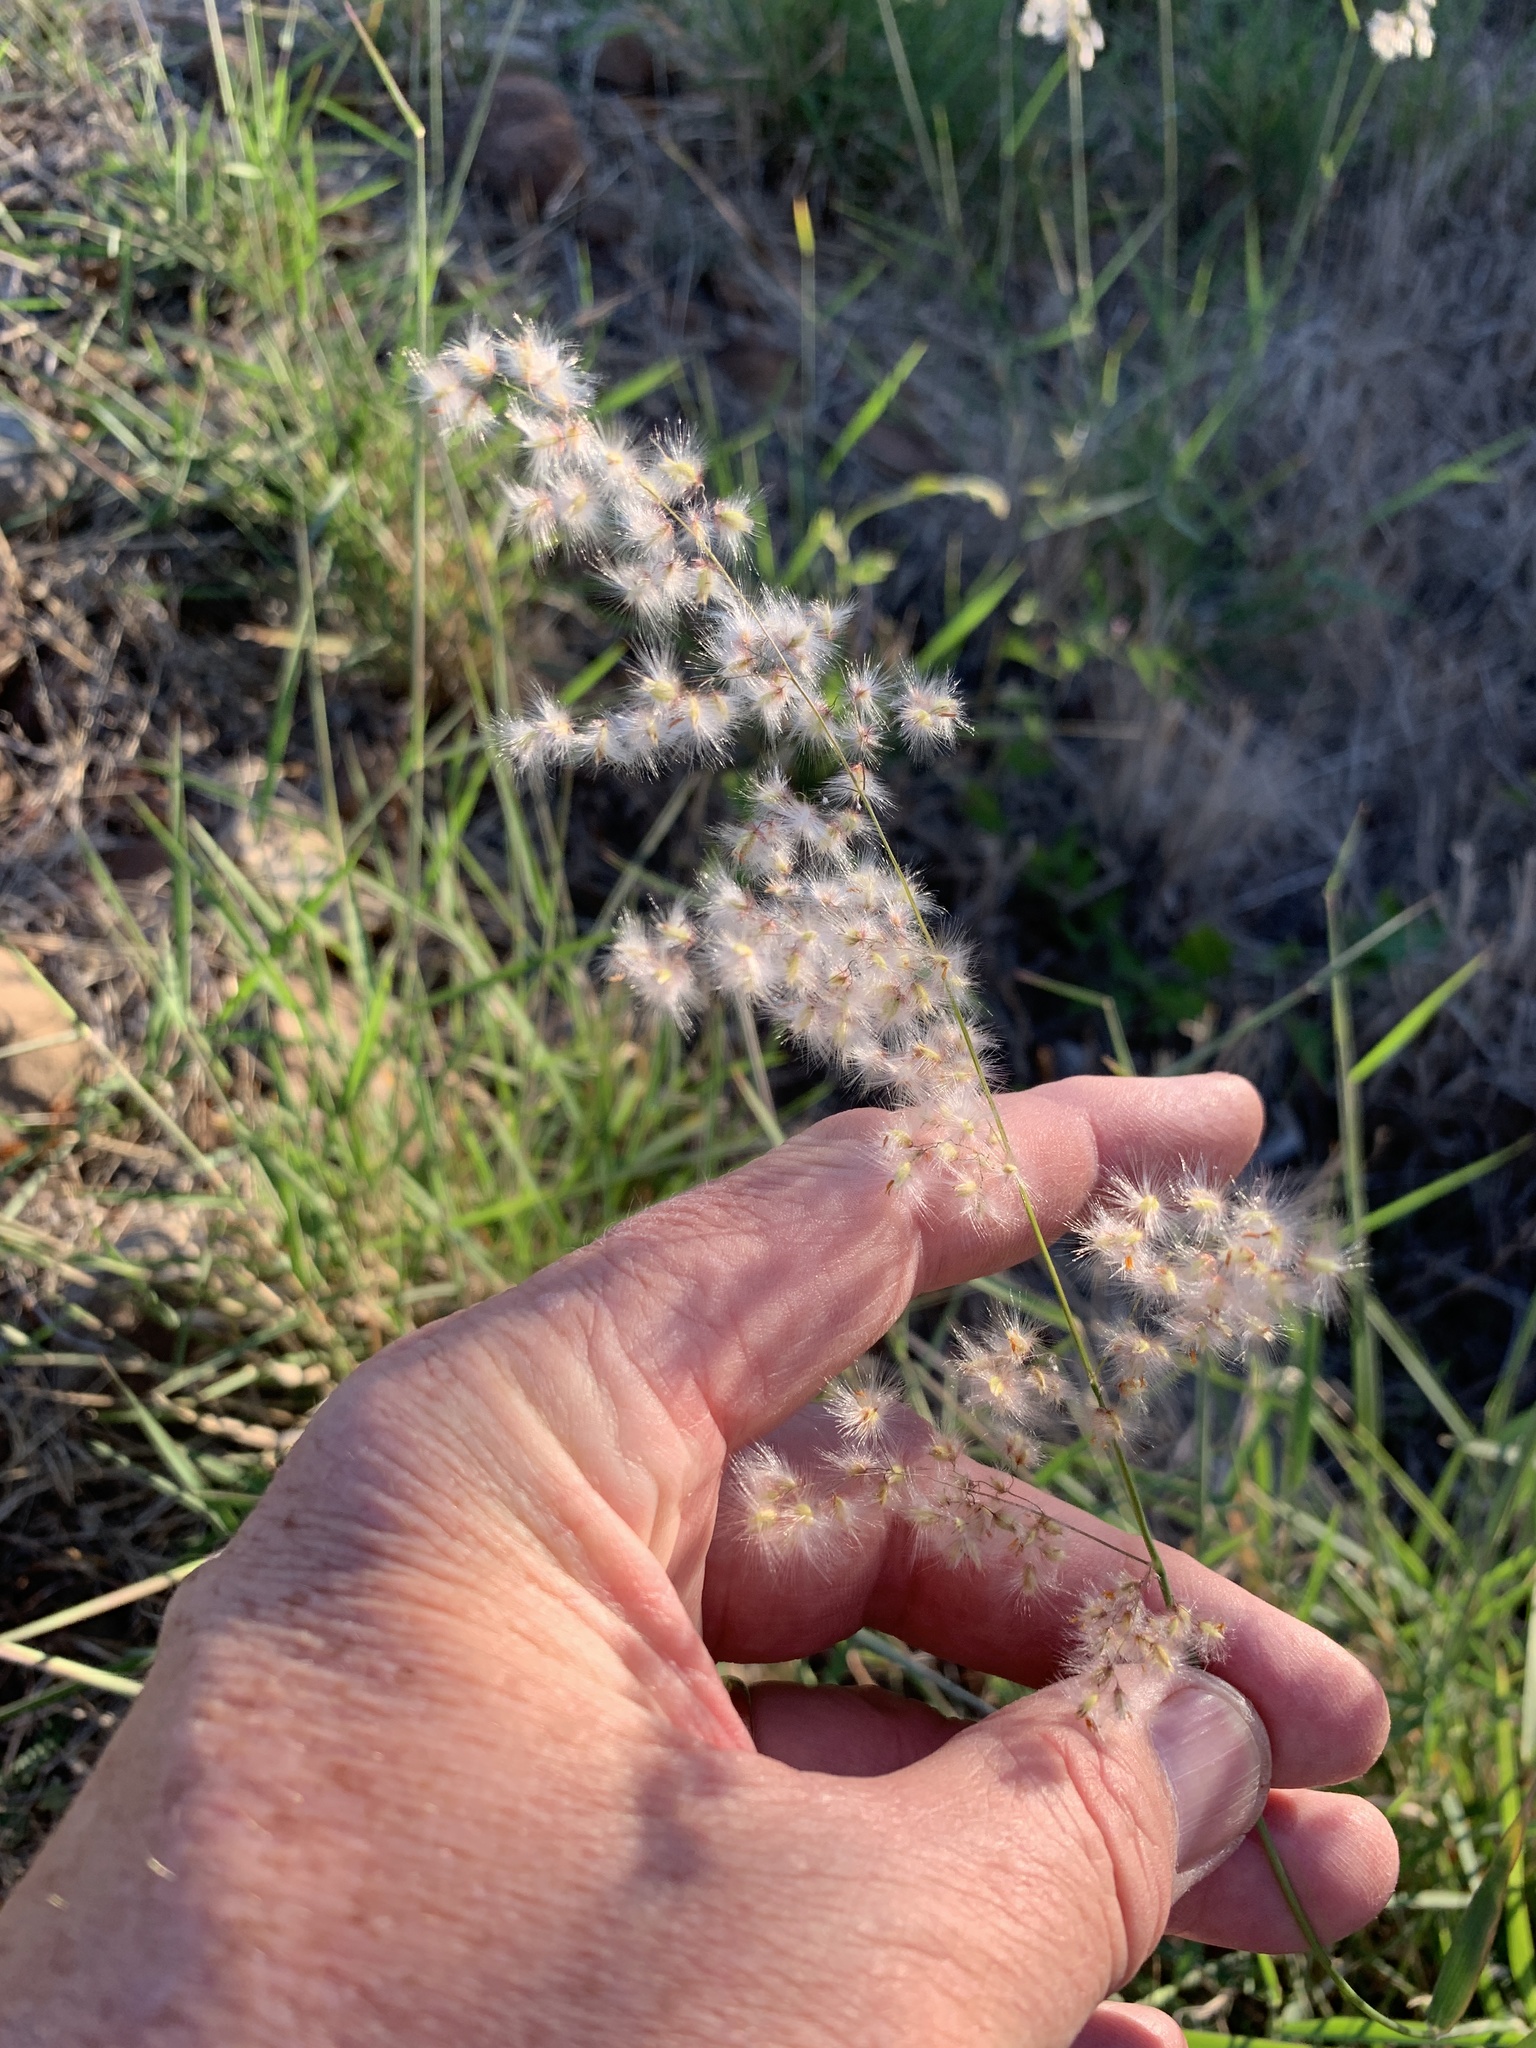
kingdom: Plantae
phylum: Tracheophyta
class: Liliopsida
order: Poales
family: Poaceae
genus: Melinis
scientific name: Melinis repens
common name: Rose natal grass
